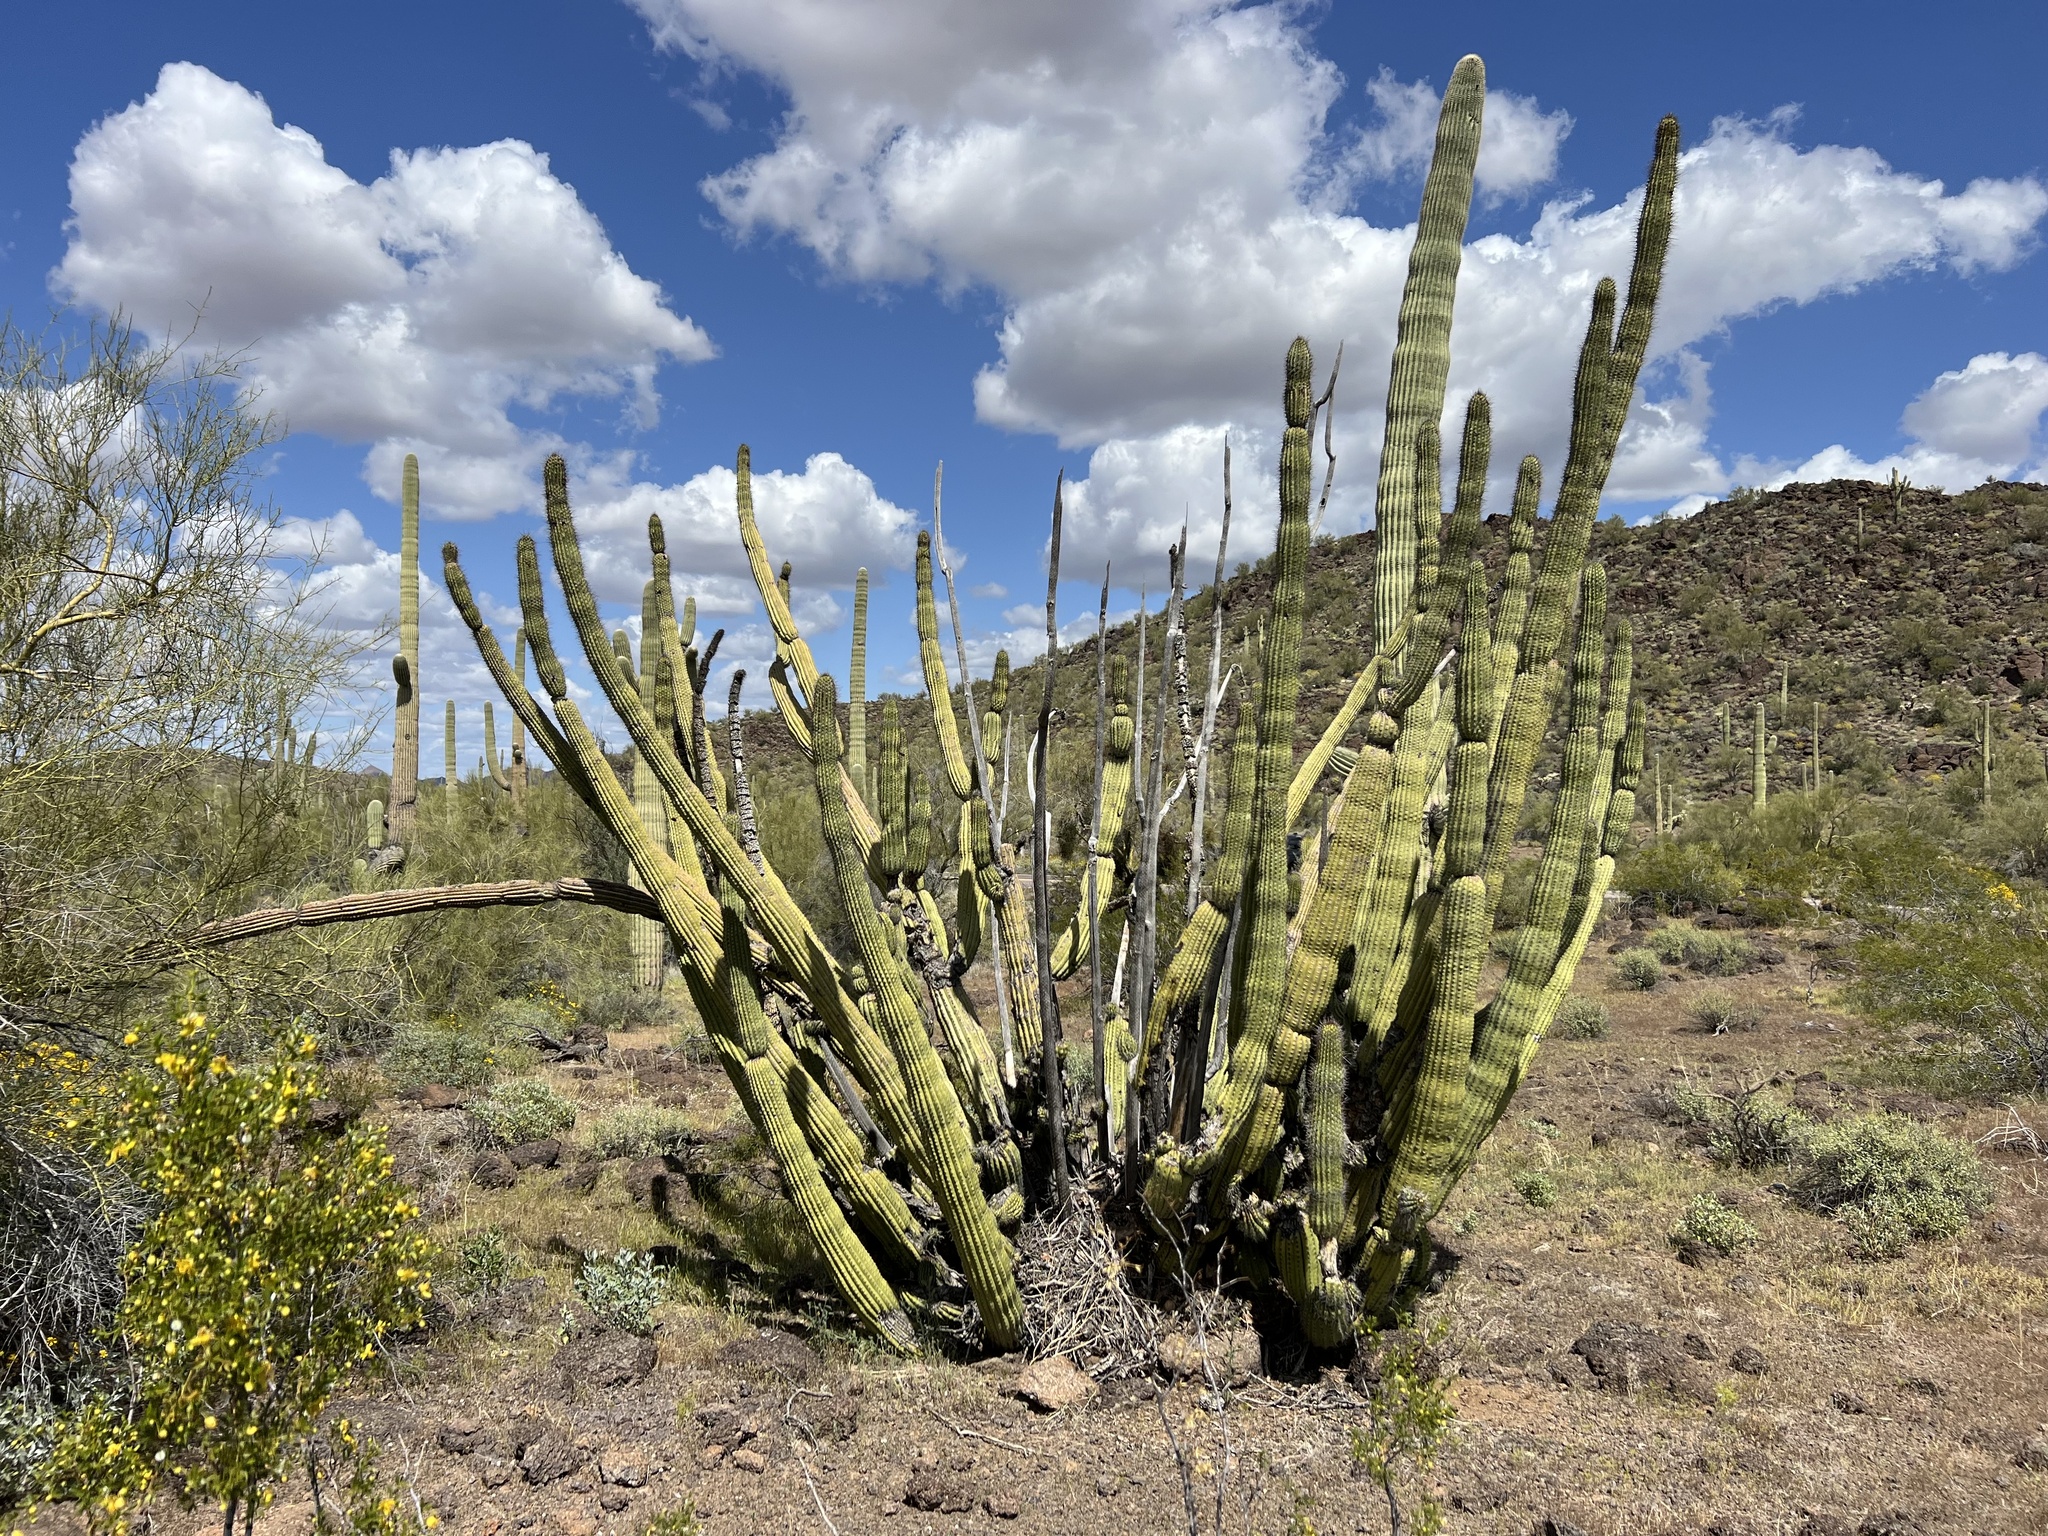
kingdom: Plantae
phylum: Tracheophyta
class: Magnoliopsida
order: Caryophyllales
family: Cactaceae
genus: Stenocereus
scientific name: Stenocereus thurberi
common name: Organ pipe cactus
